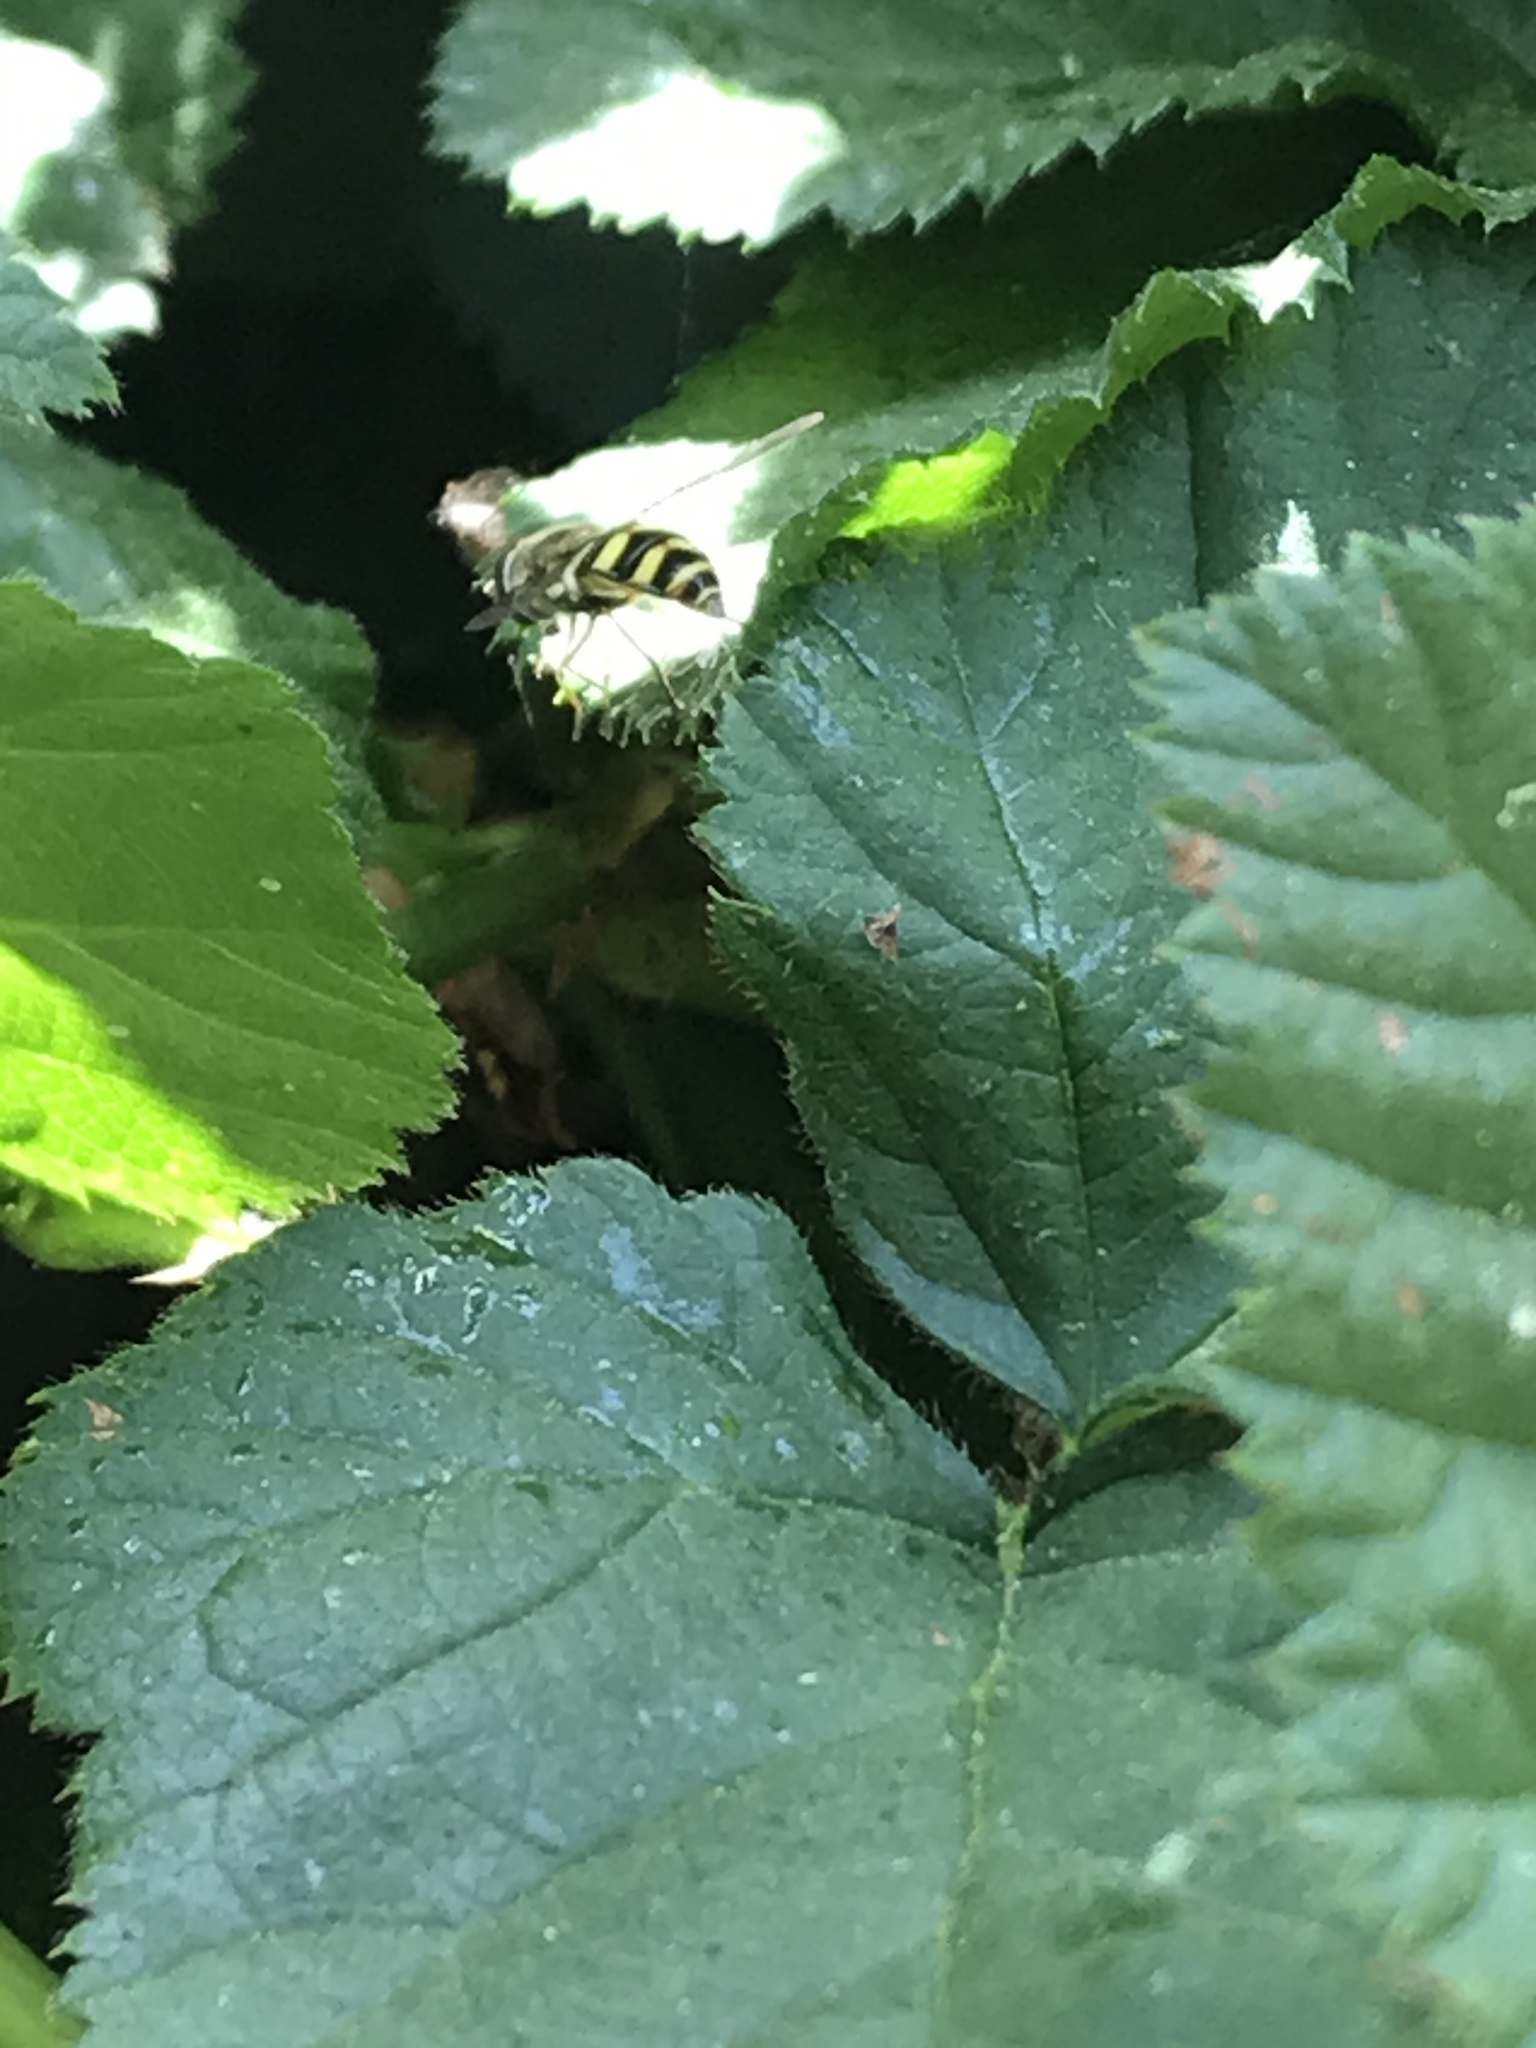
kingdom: Animalia
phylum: Arthropoda
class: Insecta
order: Diptera
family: Syrphidae
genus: Eupeodes
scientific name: Eupeodes fumipennis
